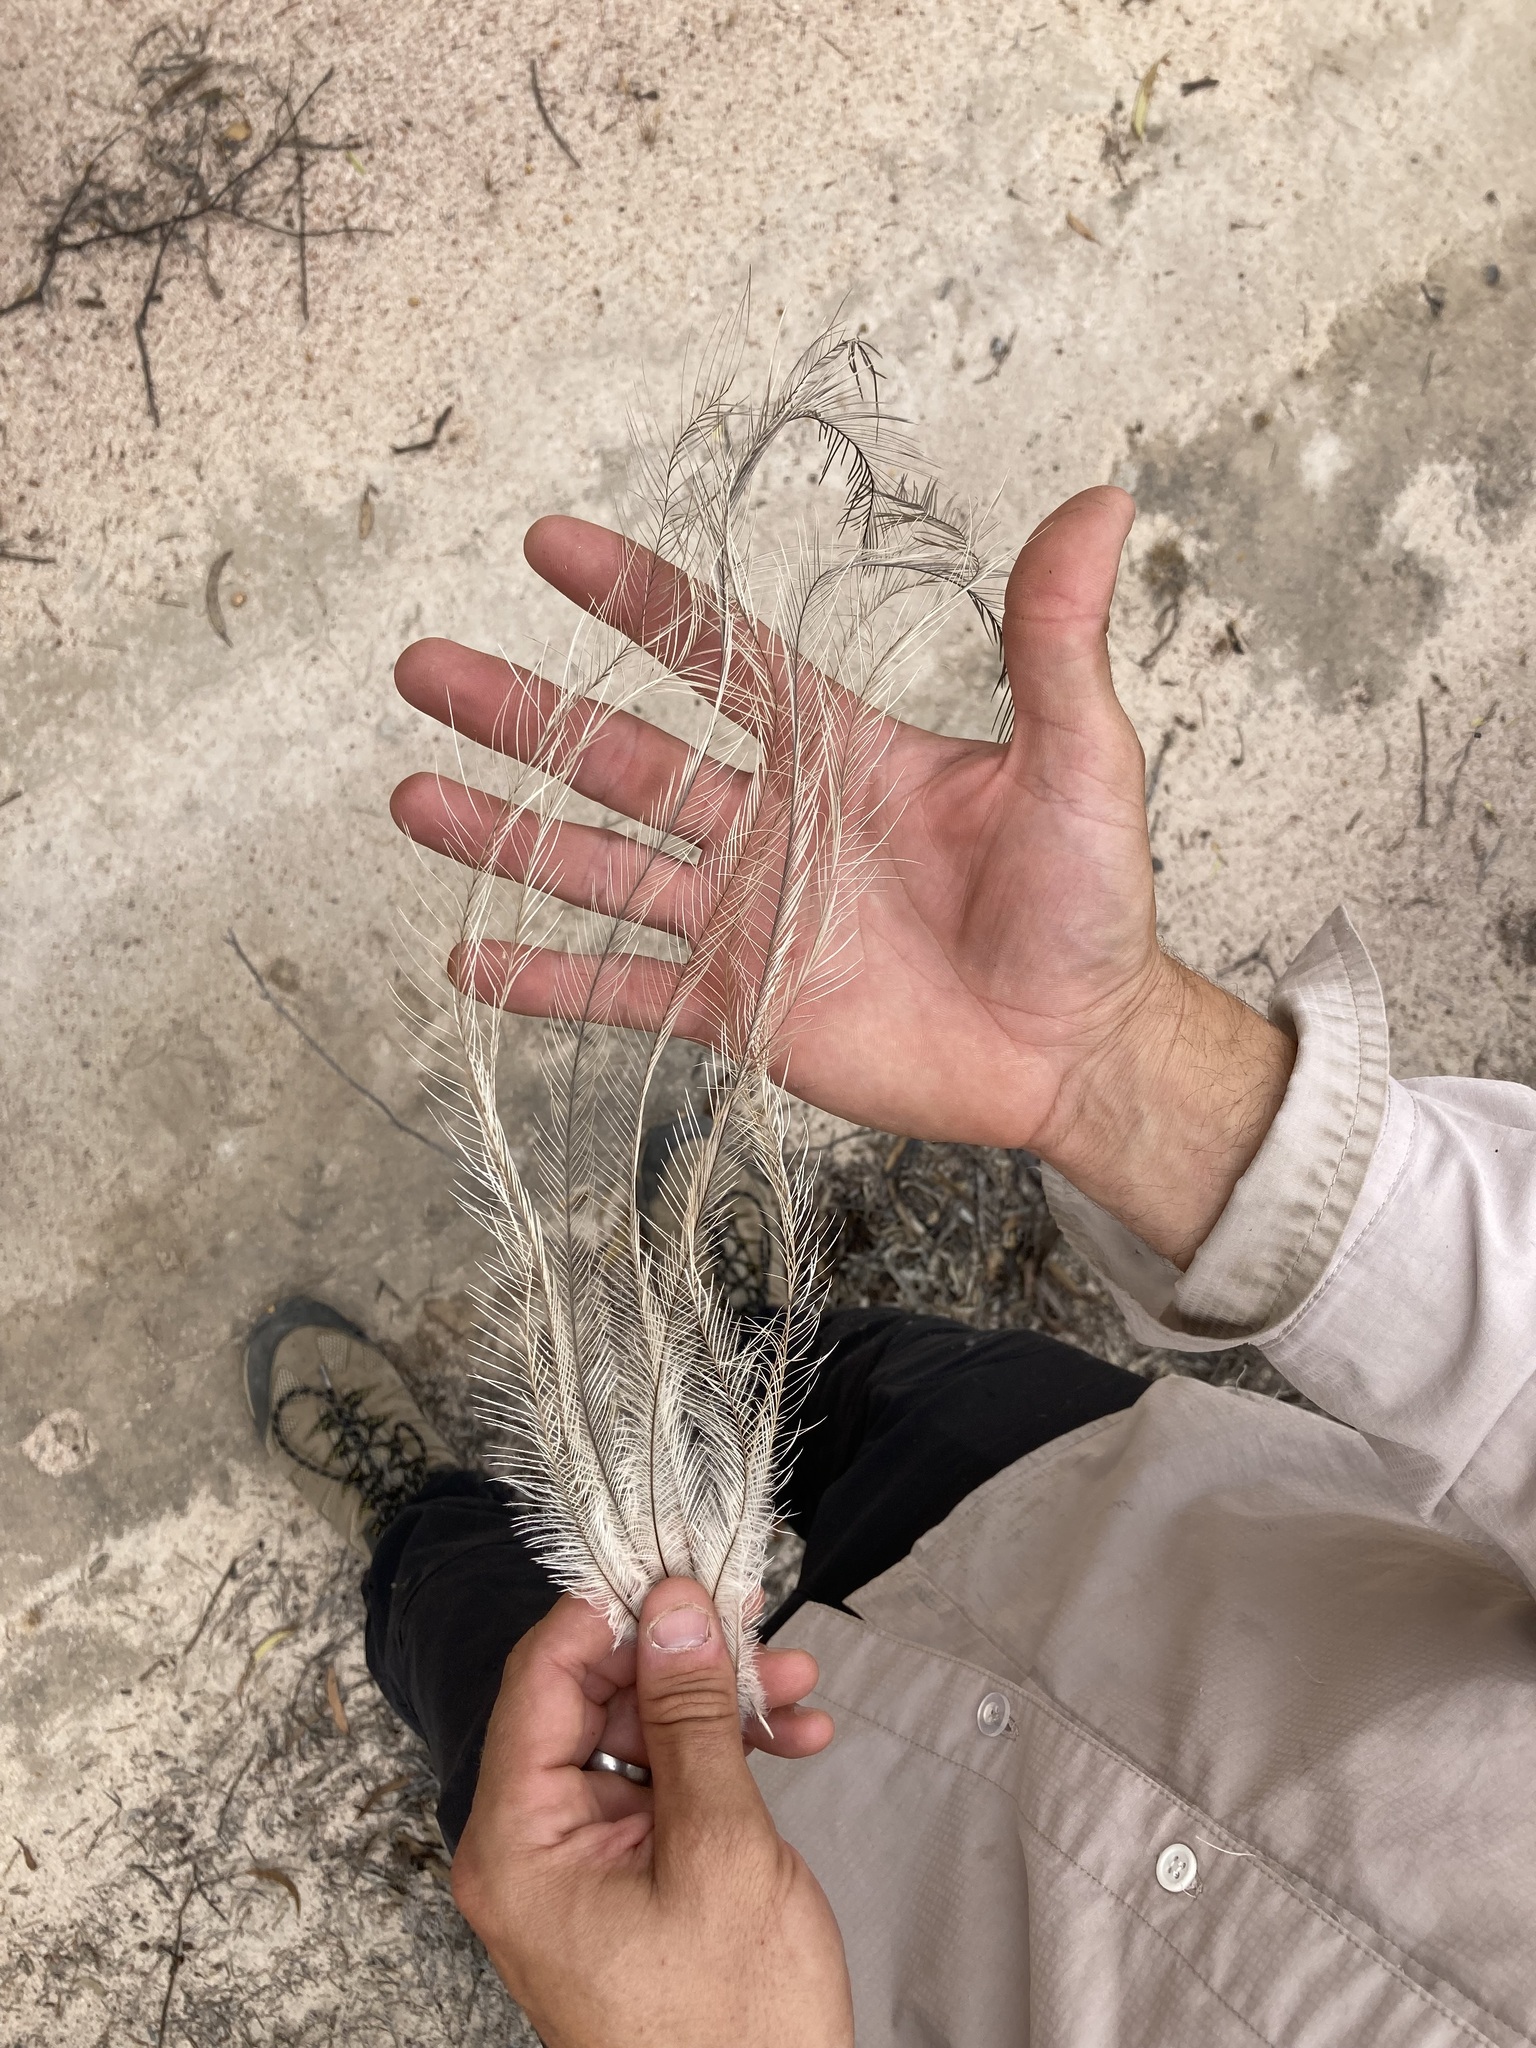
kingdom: Animalia
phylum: Chordata
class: Aves
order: Casuariiformes
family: Dromaiidae
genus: Dromaius
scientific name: Dromaius novaehollandiae
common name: Emu
